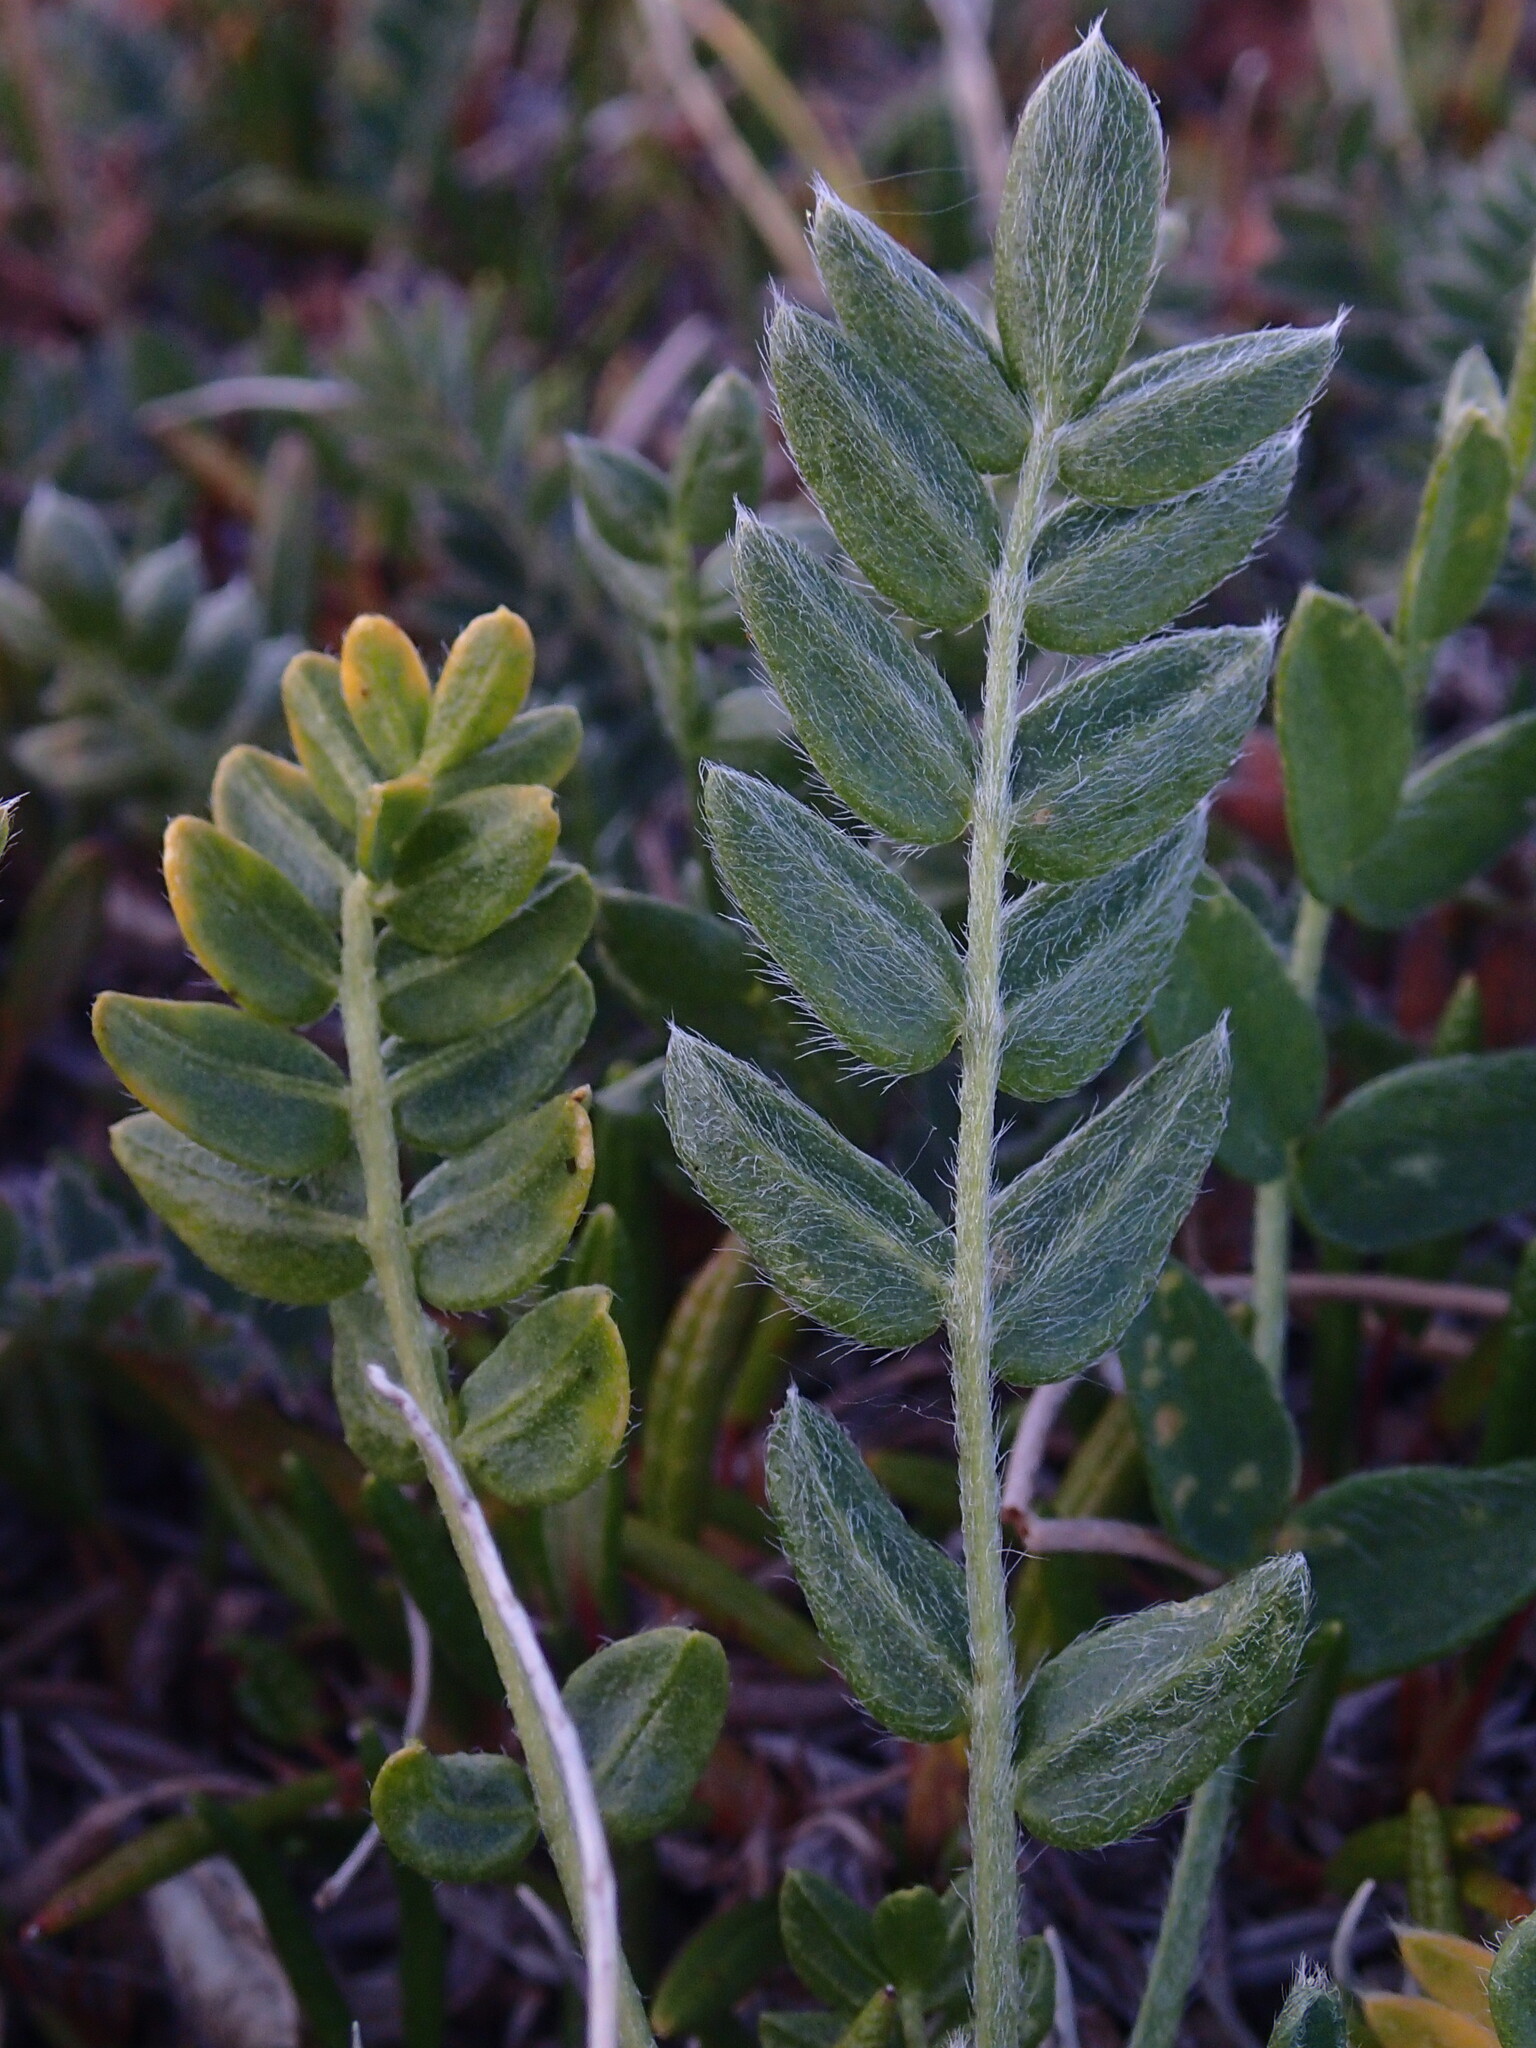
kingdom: Plantae
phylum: Tracheophyta
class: Magnoliopsida
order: Fabales
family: Fabaceae
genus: Oxytropis
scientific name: Oxytropis maydelliana
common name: Maydell's locoweed
